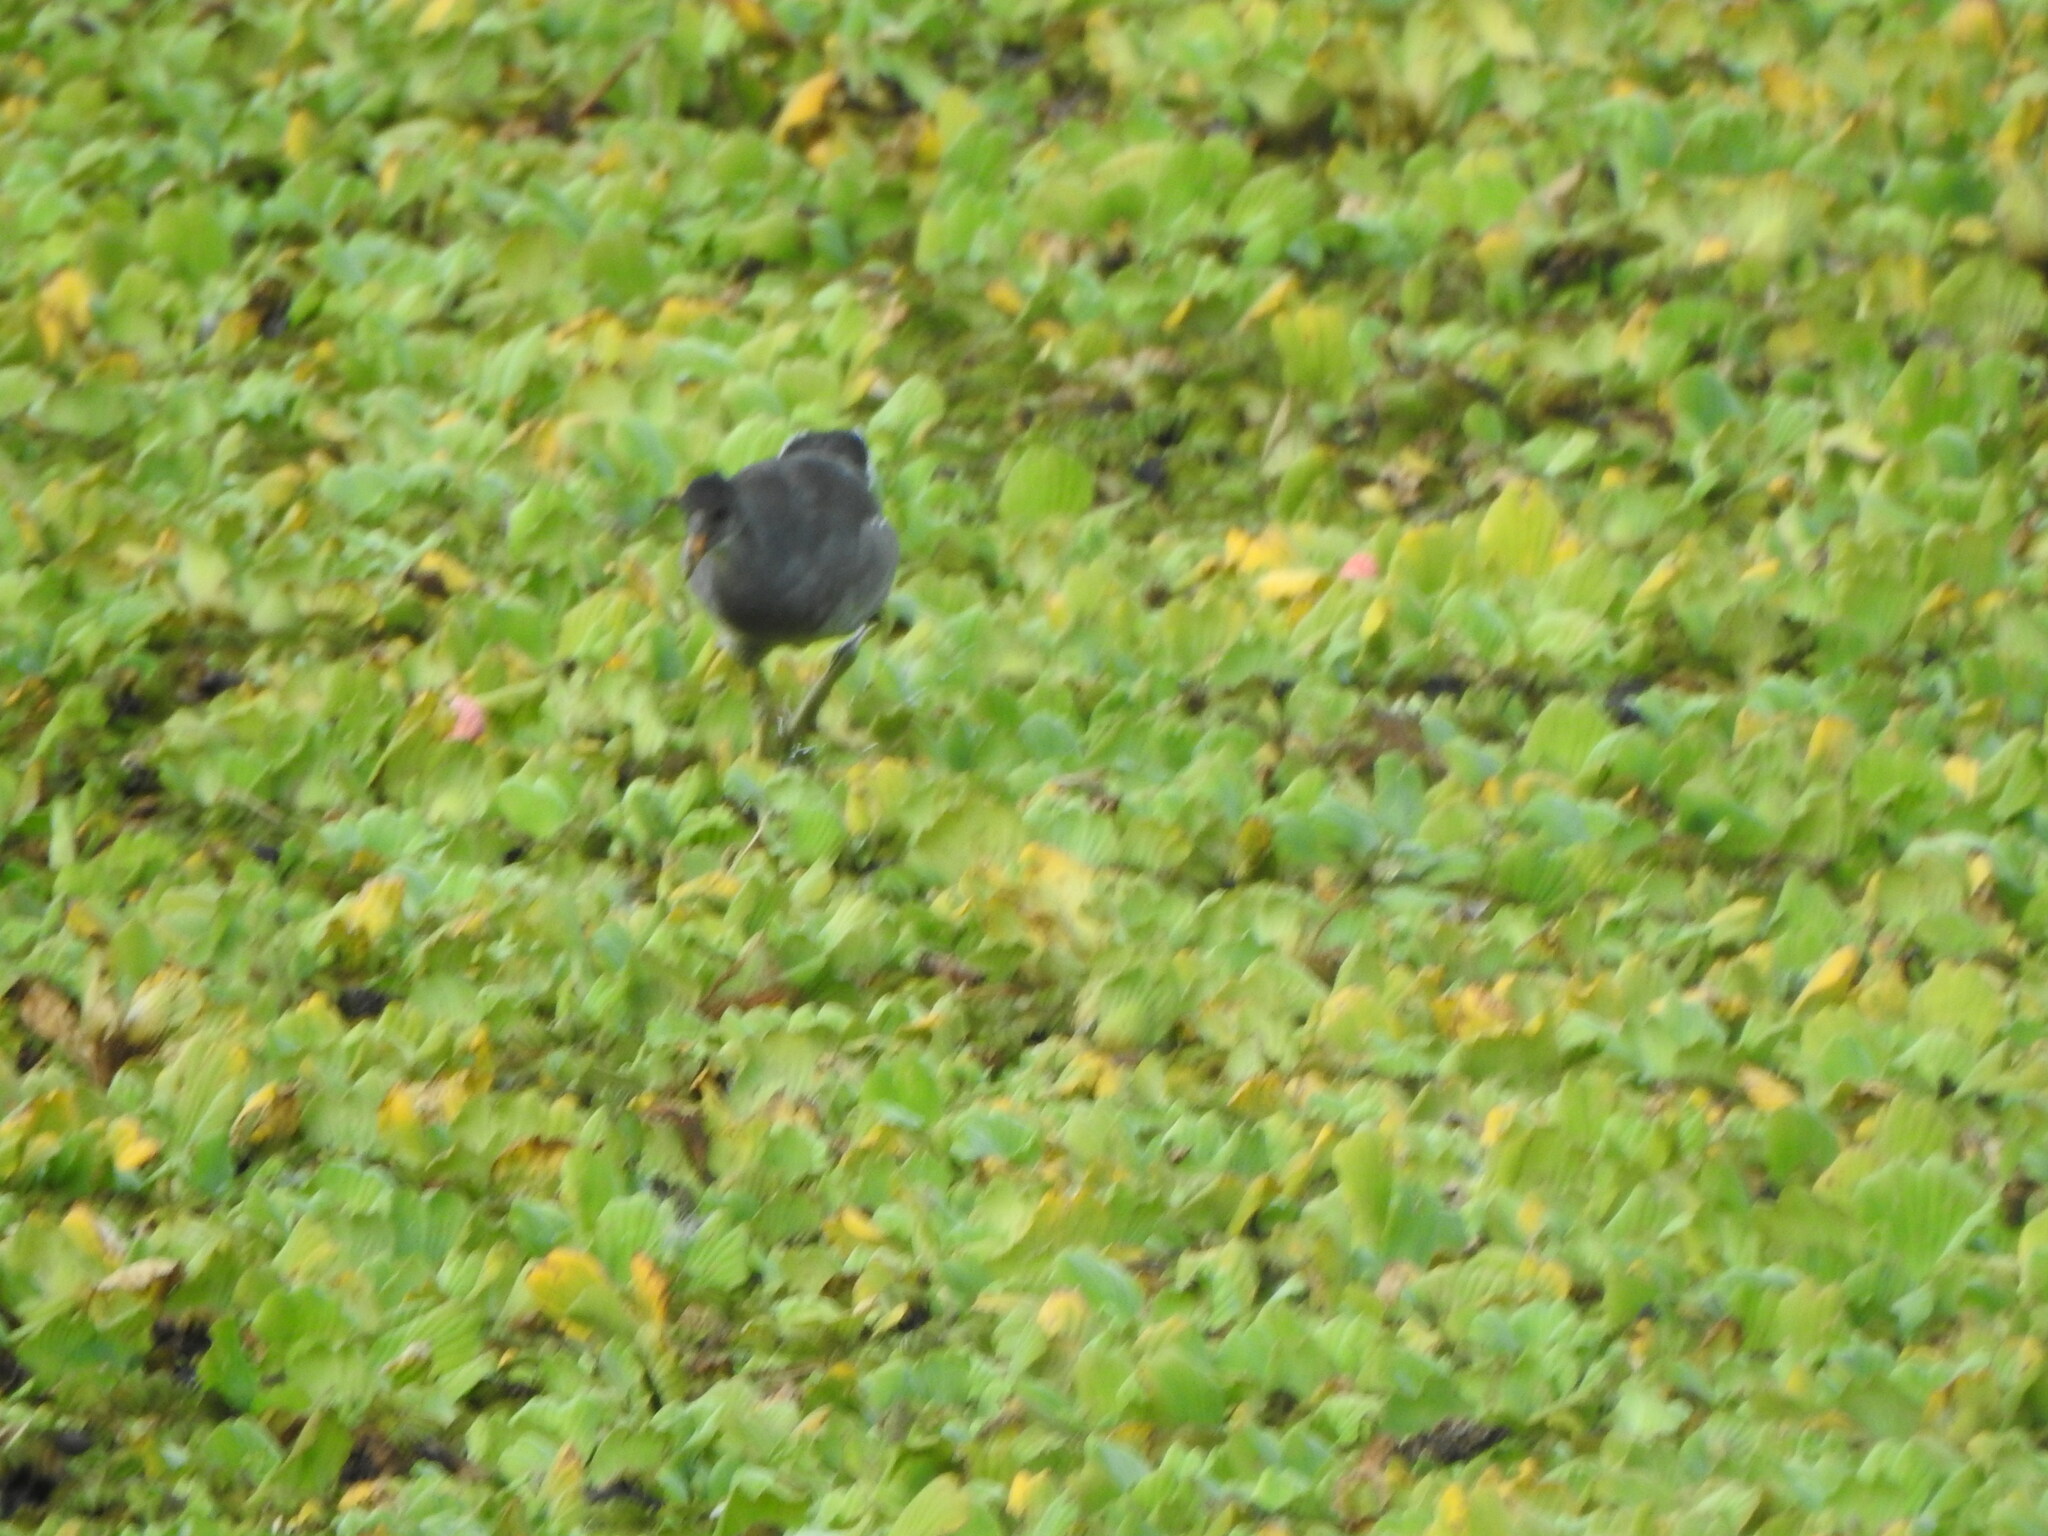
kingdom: Animalia
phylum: Chordata
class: Aves
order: Gruiformes
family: Rallidae
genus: Gallinula
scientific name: Gallinula chloropus
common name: Common moorhen
